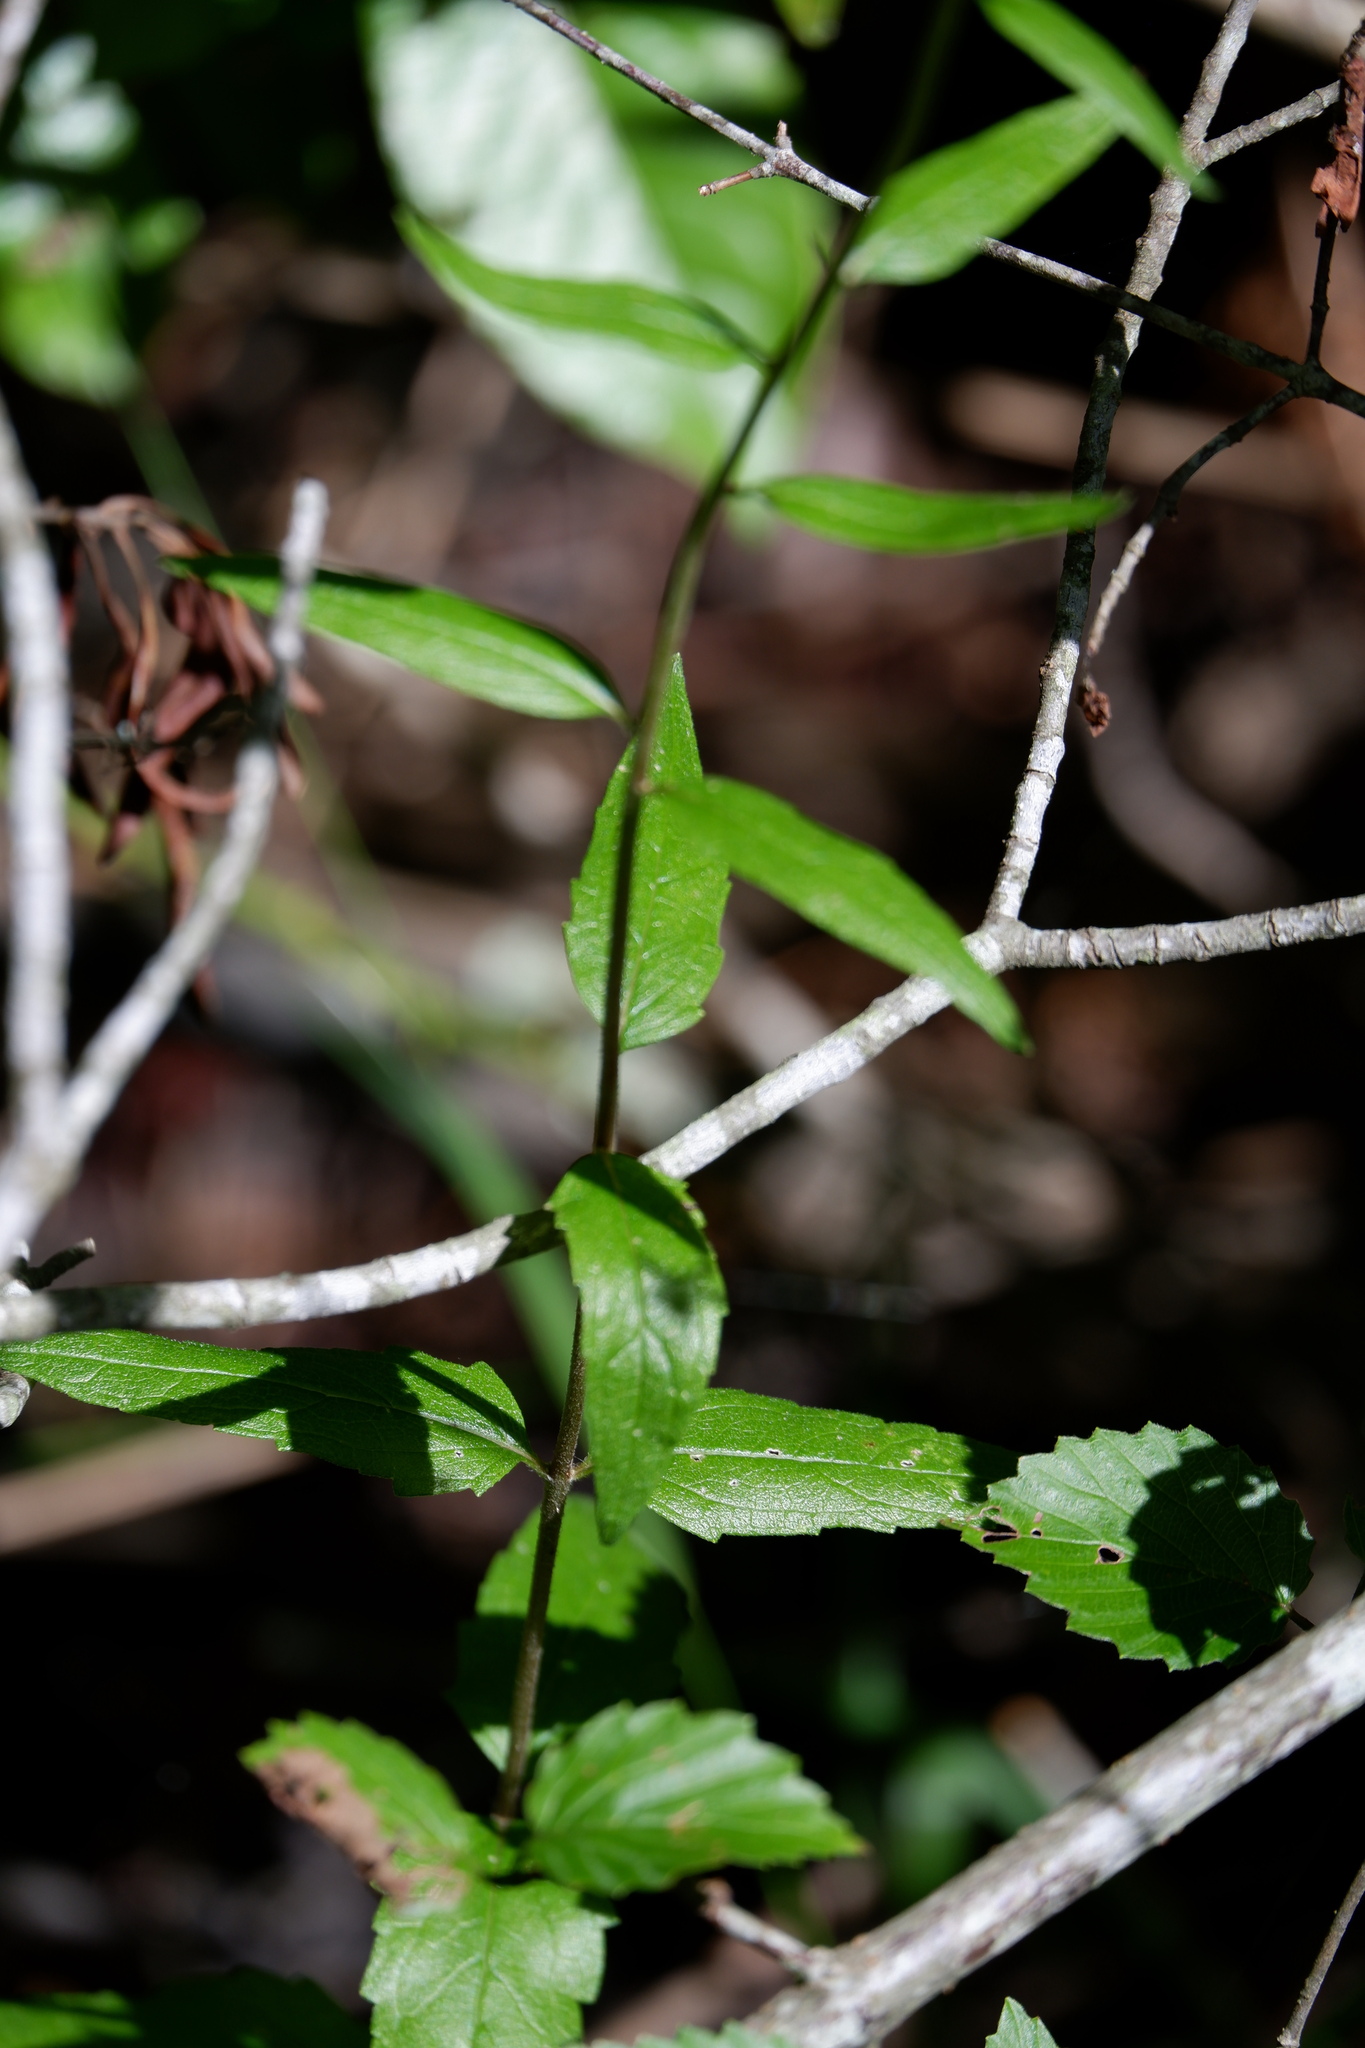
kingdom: Plantae
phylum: Tracheophyta
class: Magnoliopsida
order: Asterales
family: Asteraceae
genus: Eupatorium
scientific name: Eupatorium pilosum
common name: Rough boneset
